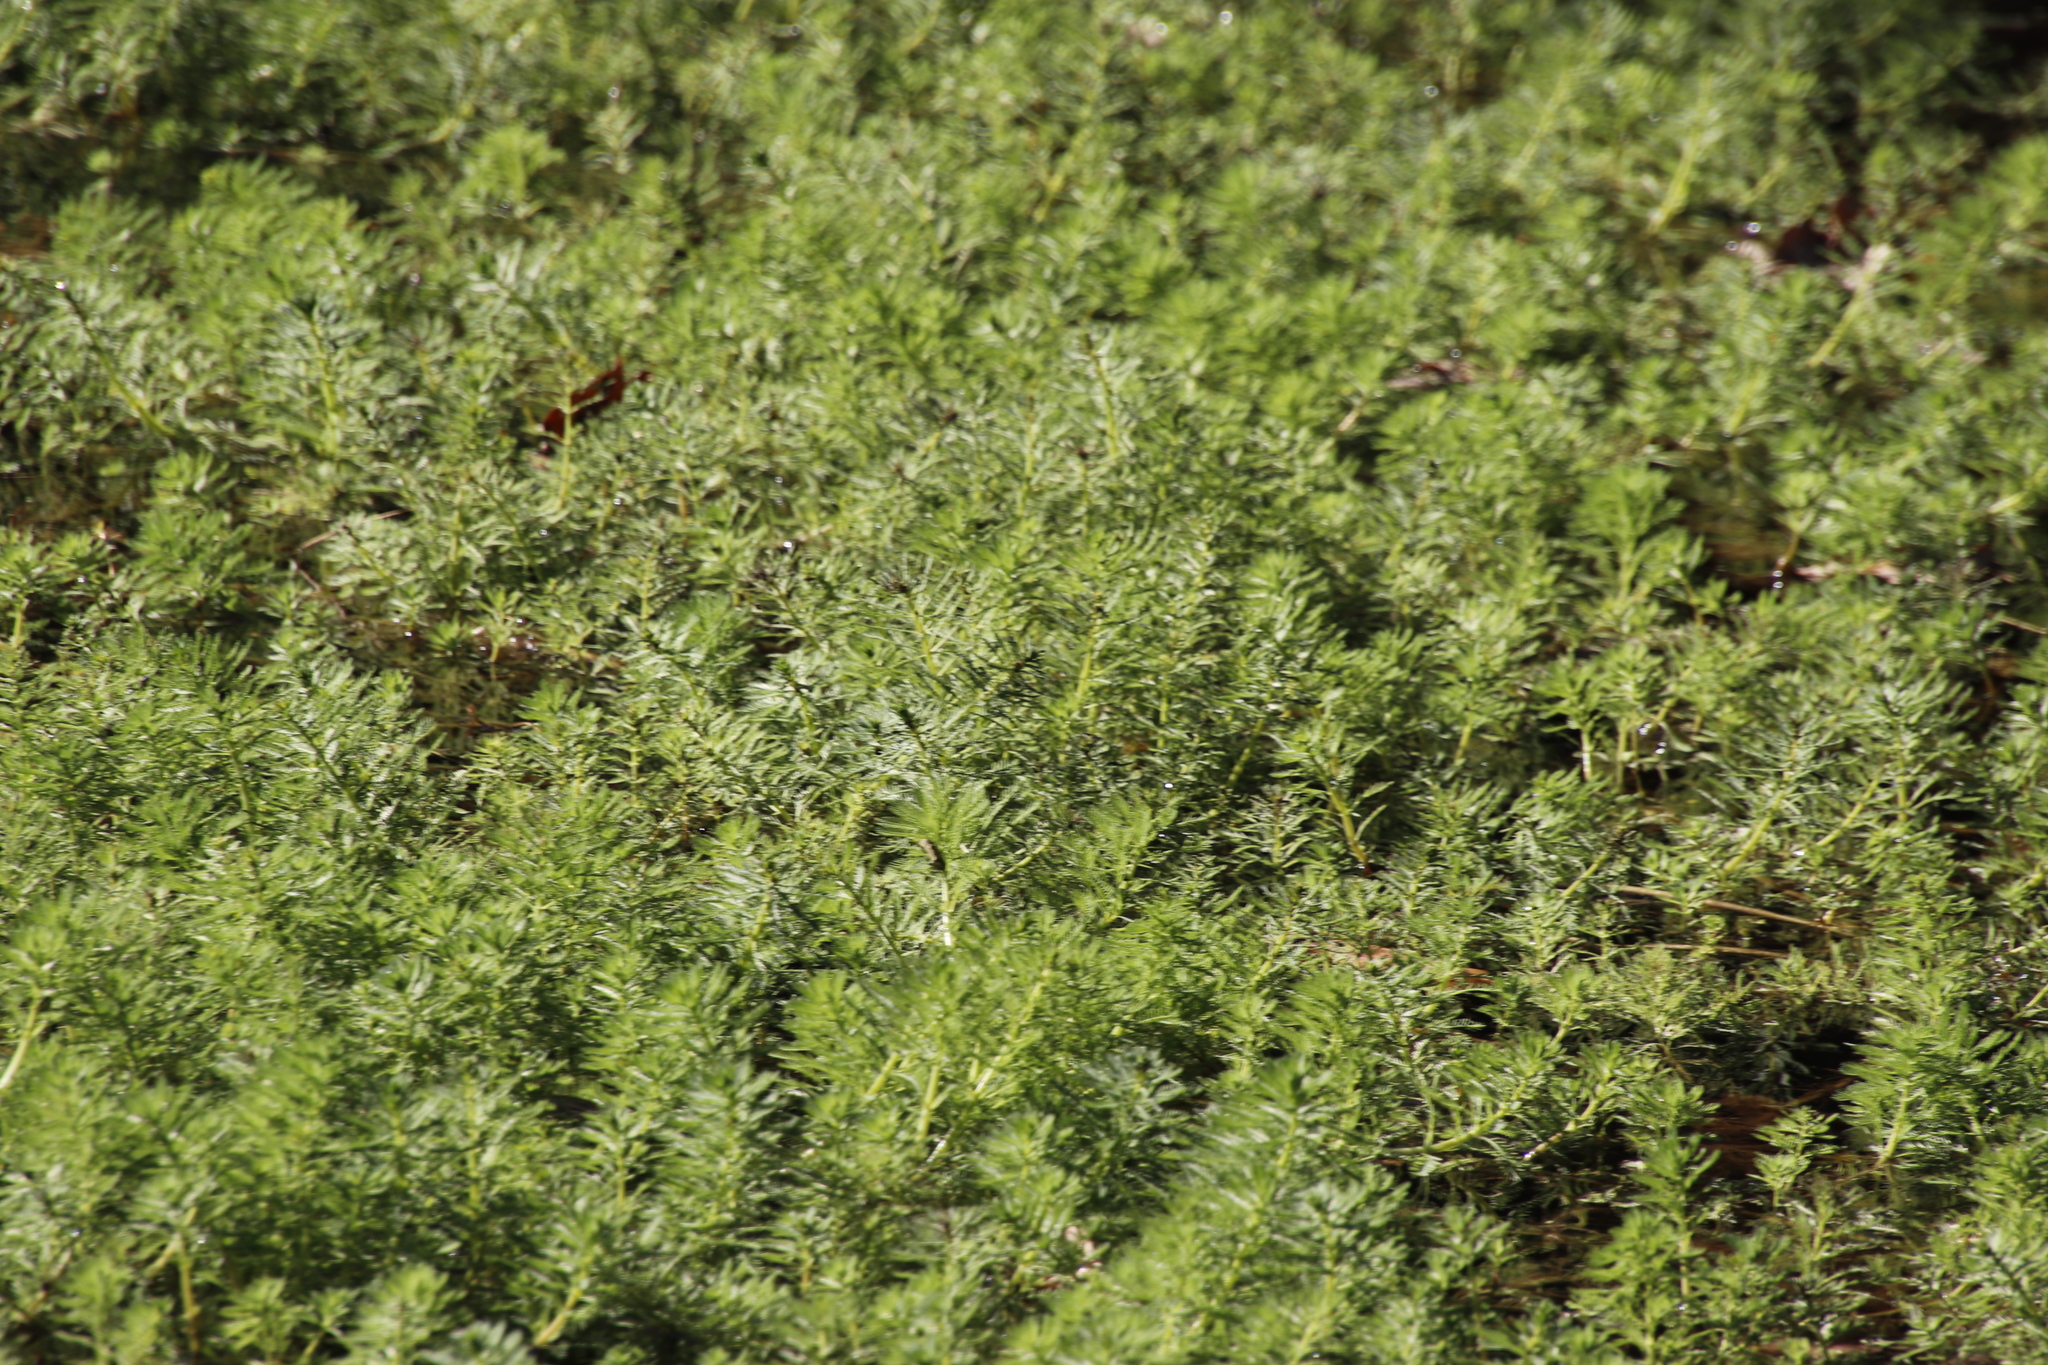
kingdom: Plantae
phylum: Tracheophyta
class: Magnoliopsida
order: Saxifragales
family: Haloragaceae
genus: Myriophyllum
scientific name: Myriophyllum aquaticum
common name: Parrot's feather
